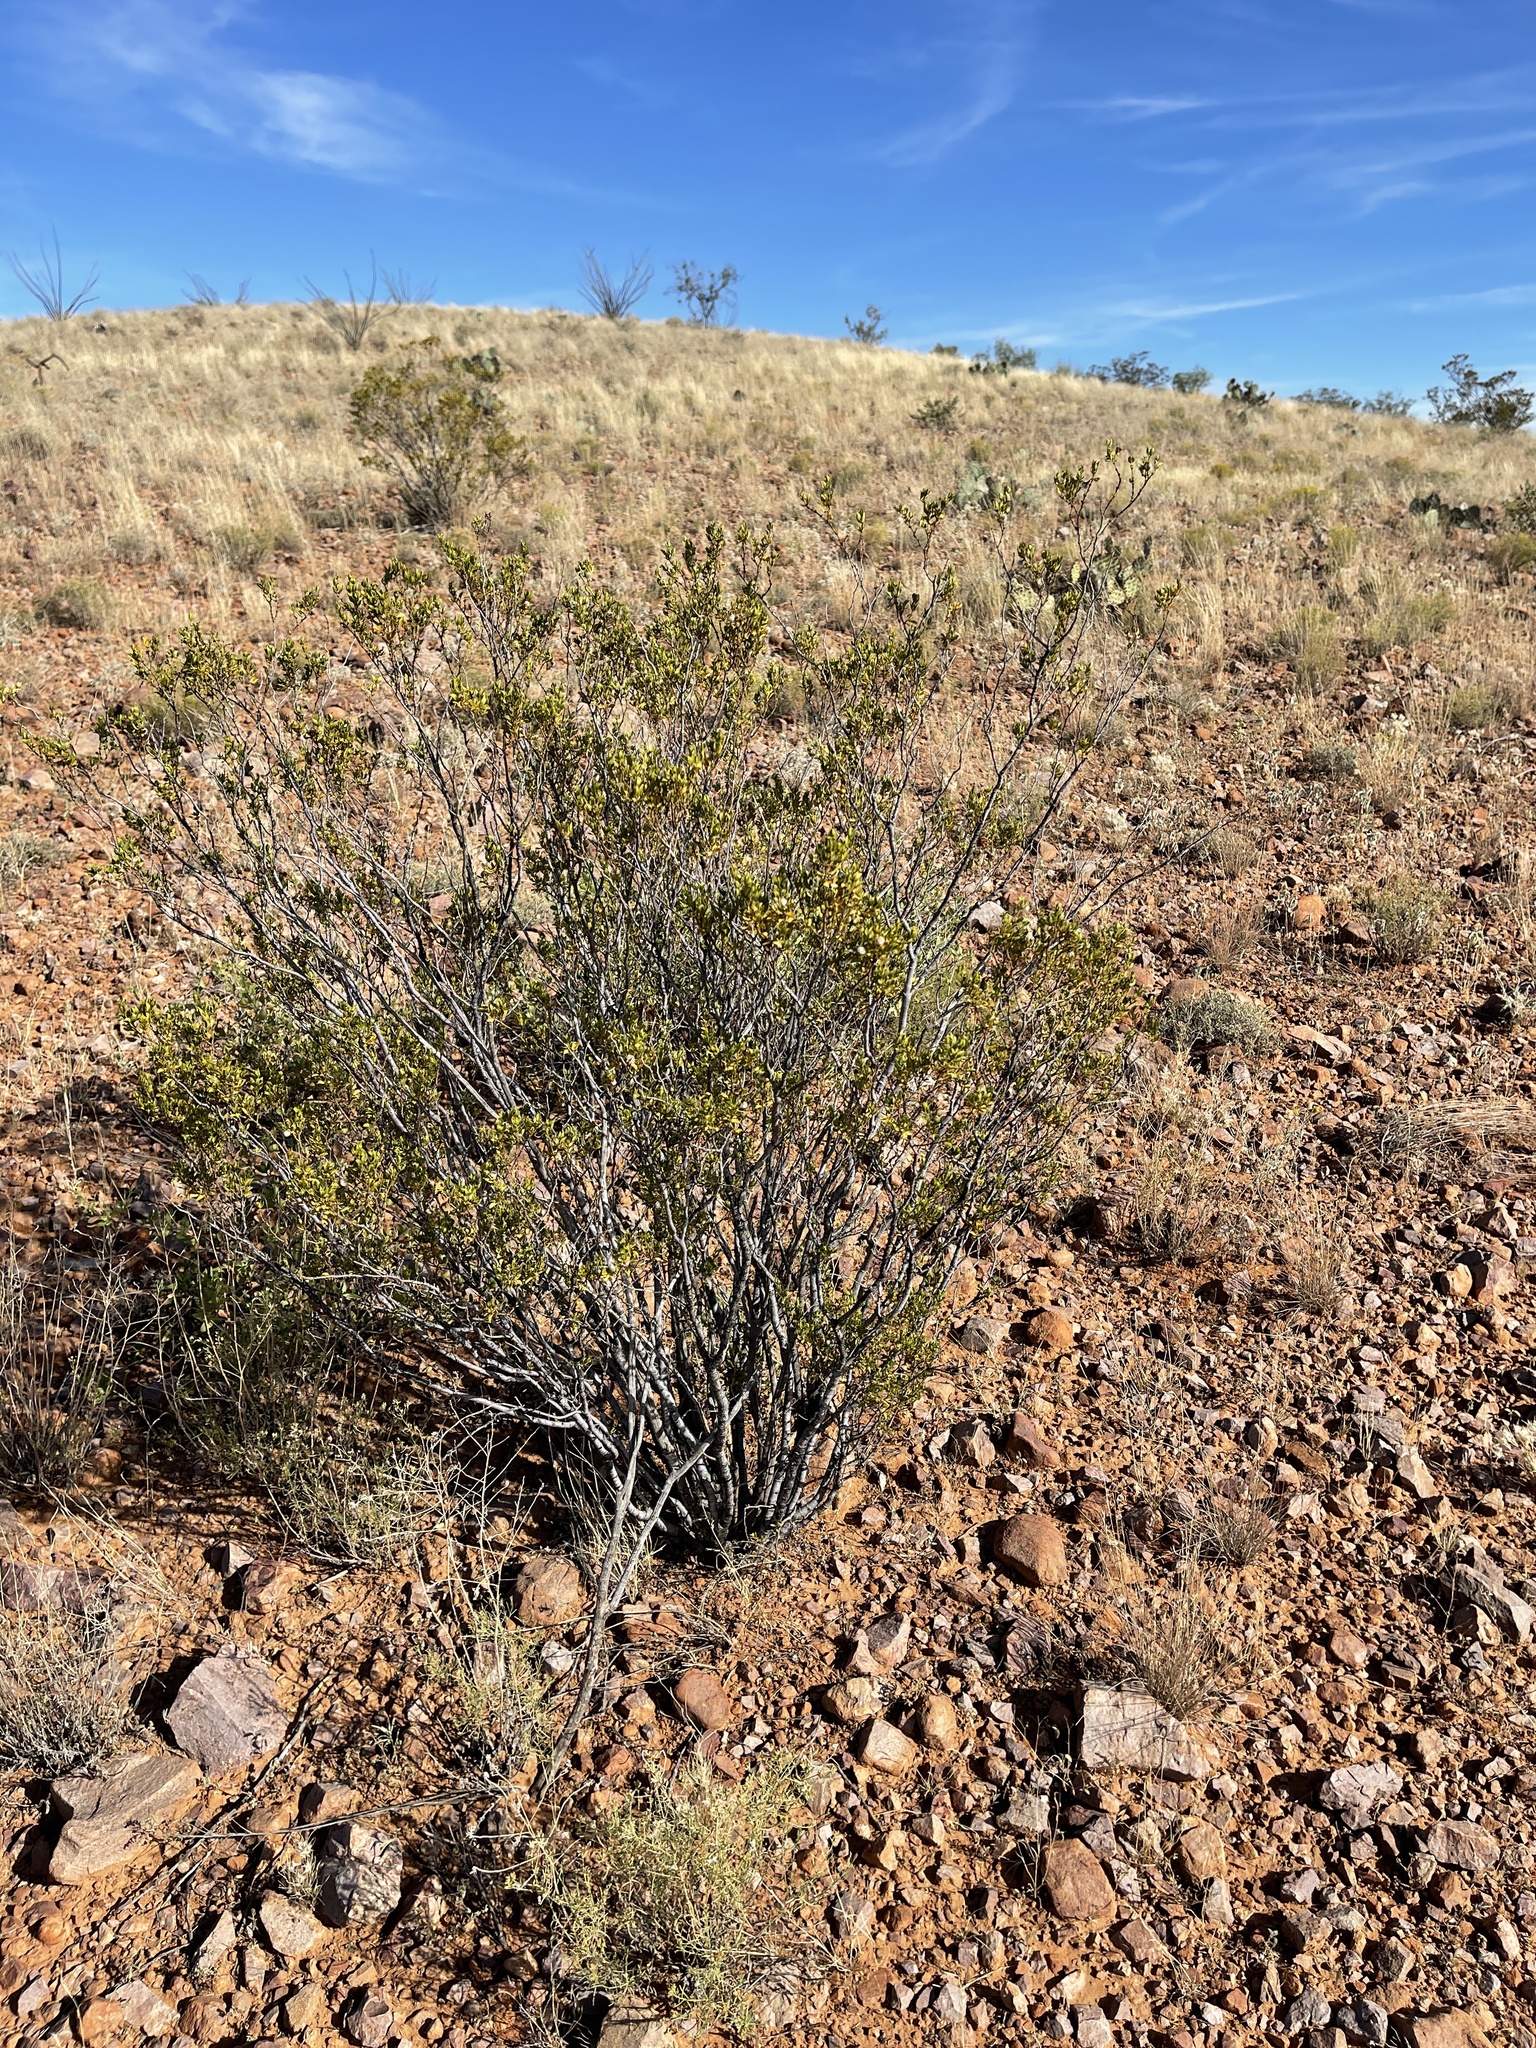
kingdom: Plantae
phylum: Tracheophyta
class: Magnoliopsida
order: Zygophyllales
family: Zygophyllaceae
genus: Larrea
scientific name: Larrea tridentata
